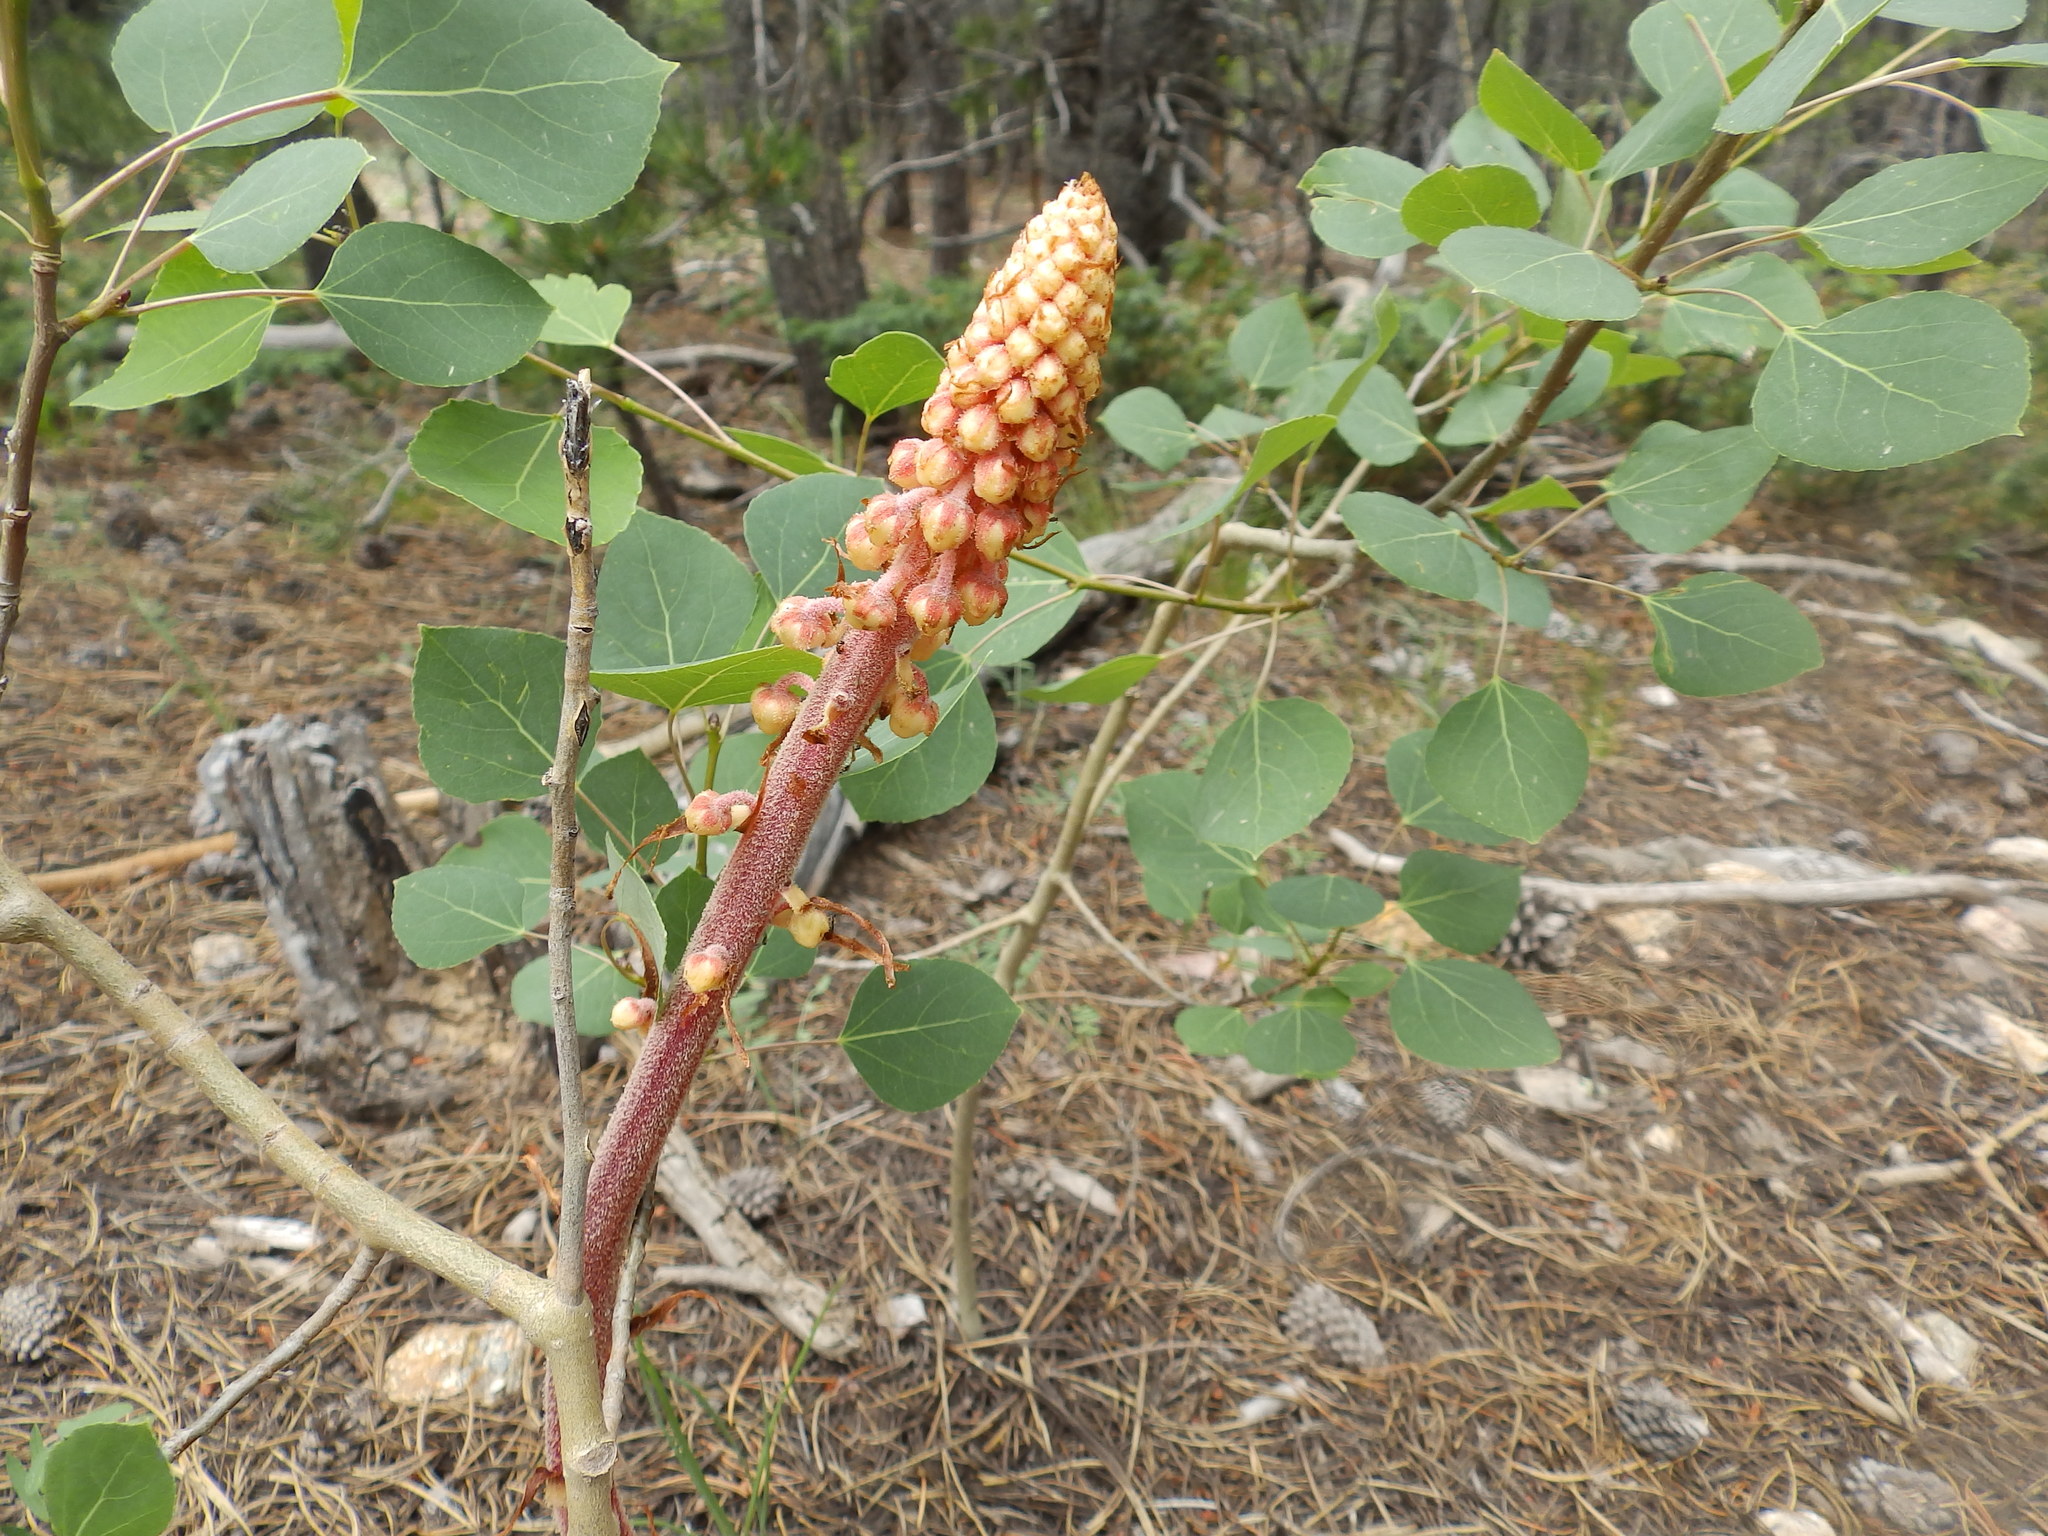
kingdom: Plantae
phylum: Tracheophyta
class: Magnoliopsida
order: Ericales
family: Ericaceae
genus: Pterospora
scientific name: Pterospora andromedea
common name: Giant bird's-nest
